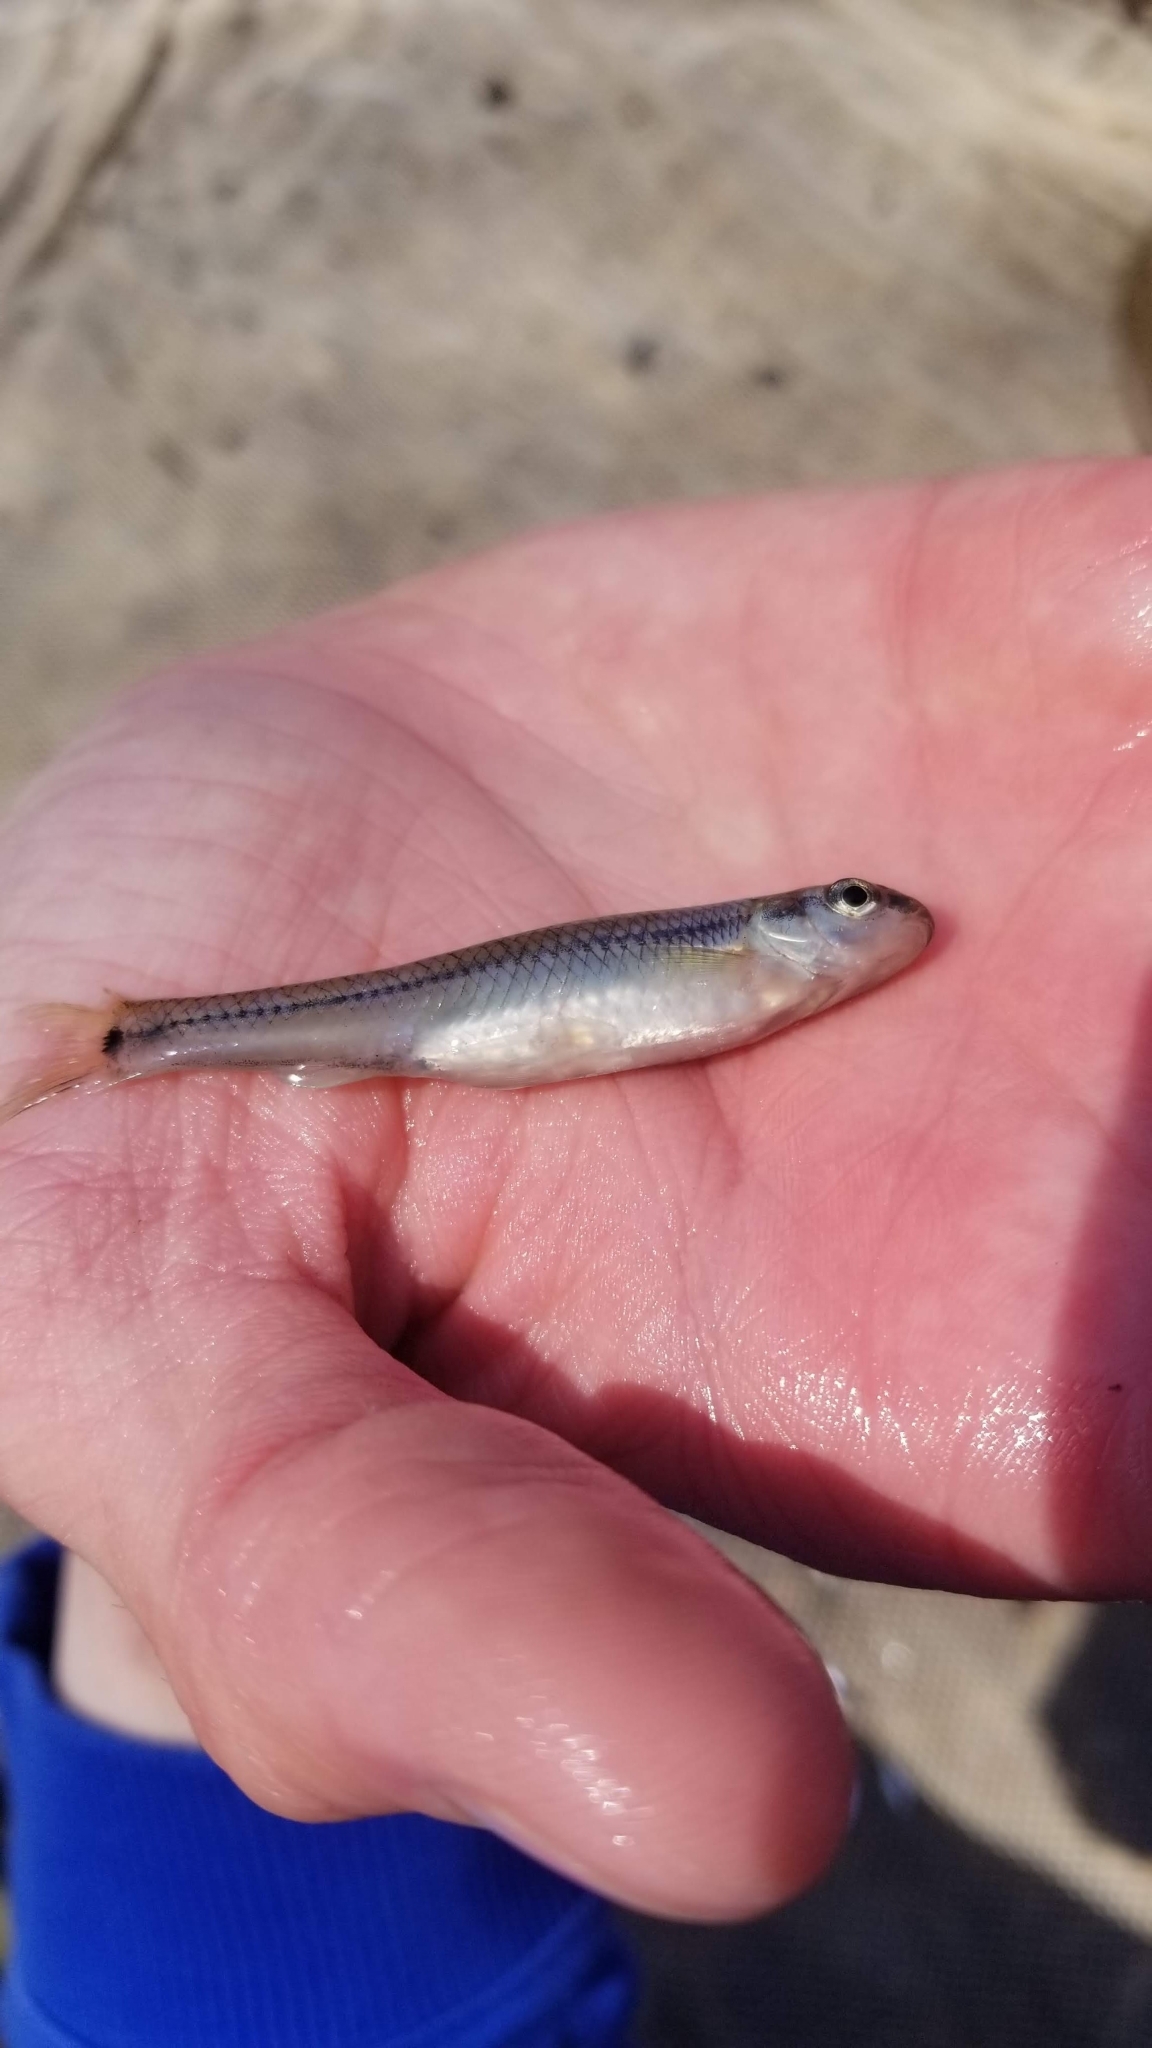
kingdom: Animalia
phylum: Chordata
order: Cypriniformes
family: Cyprinidae
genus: Pimephales
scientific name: Pimephales notatus
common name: Bluntnose minnow
